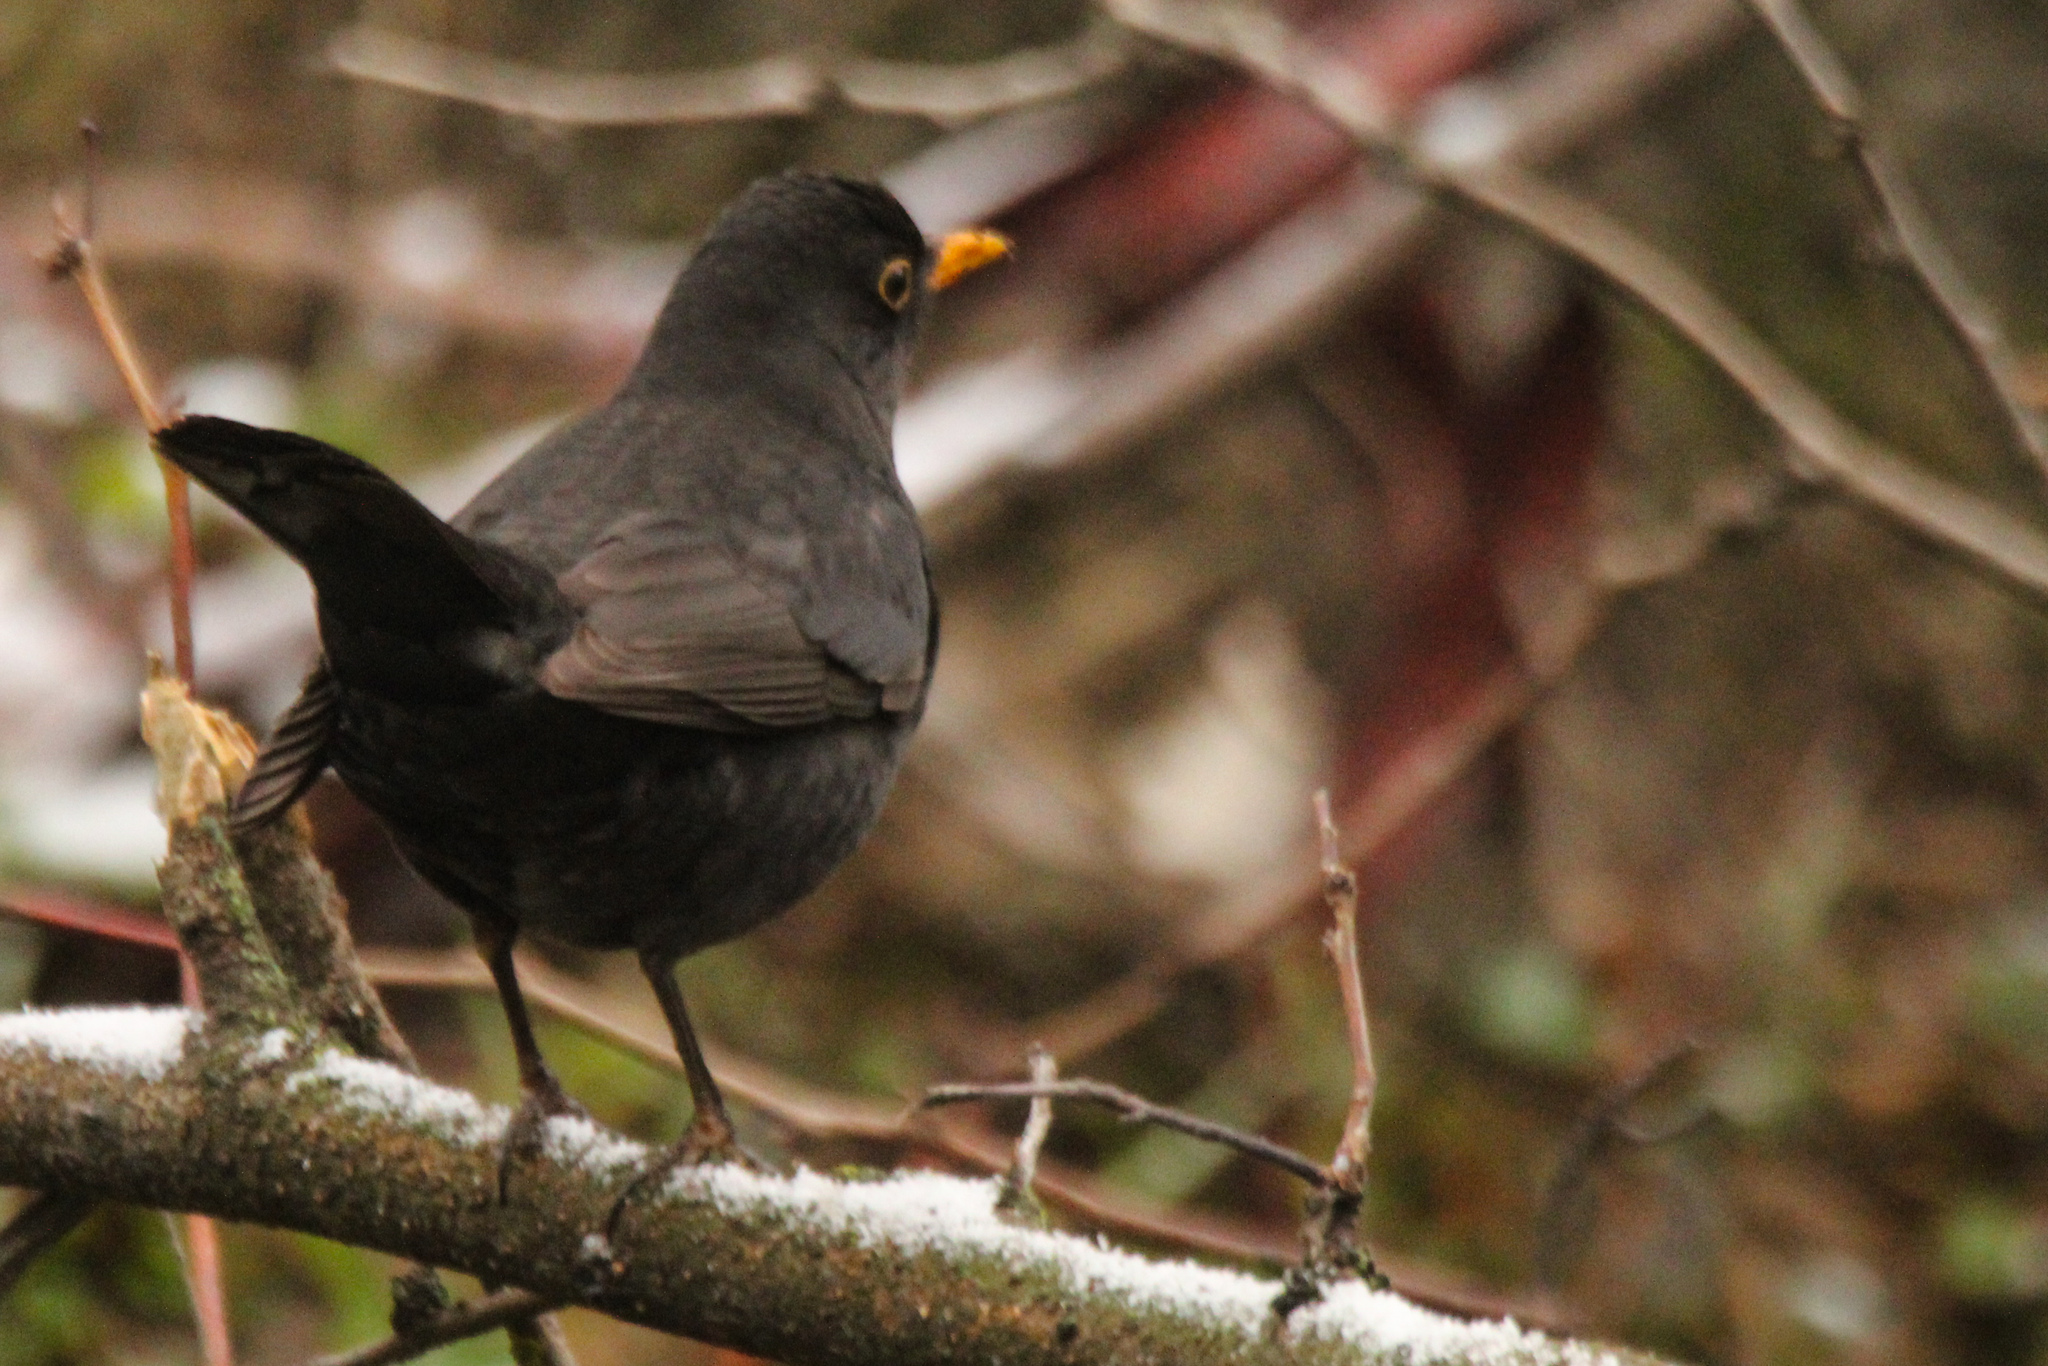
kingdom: Animalia
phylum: Chordata
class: Aves
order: Passeriformes
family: Turdidae
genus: Turdus
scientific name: Turdus merula
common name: Common blackbird
